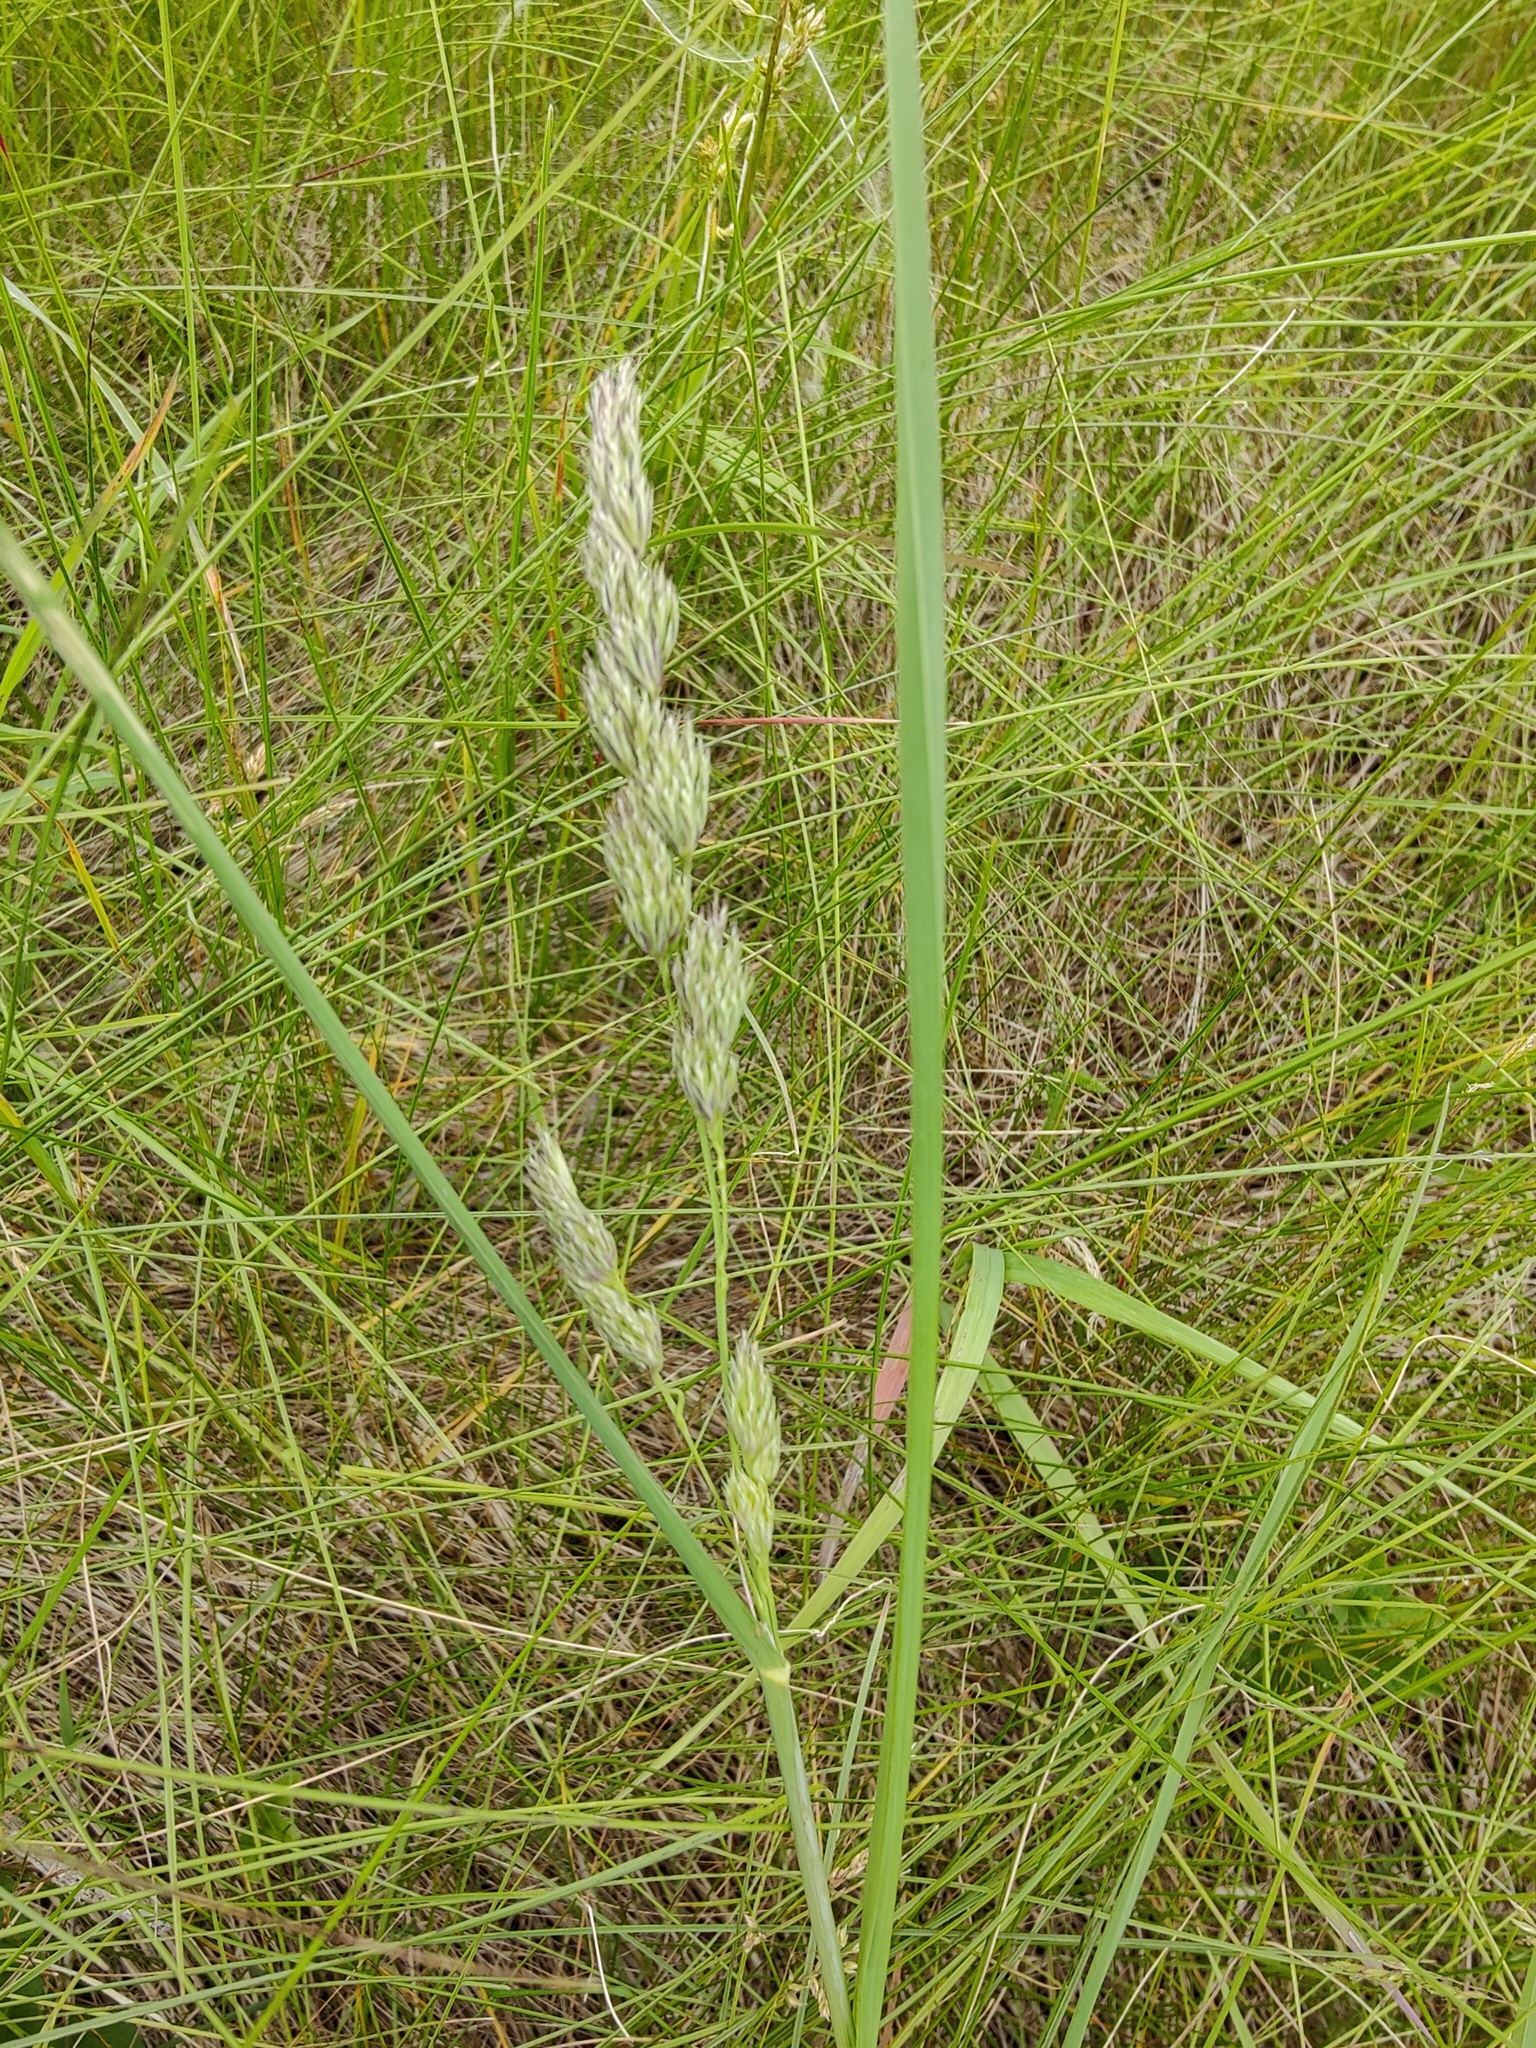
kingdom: Plantae
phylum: Tracheophyta
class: Liliopsida
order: Poales
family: Poaceae
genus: Dactylis
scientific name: Dactylis glomerata
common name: Orchardgrass
